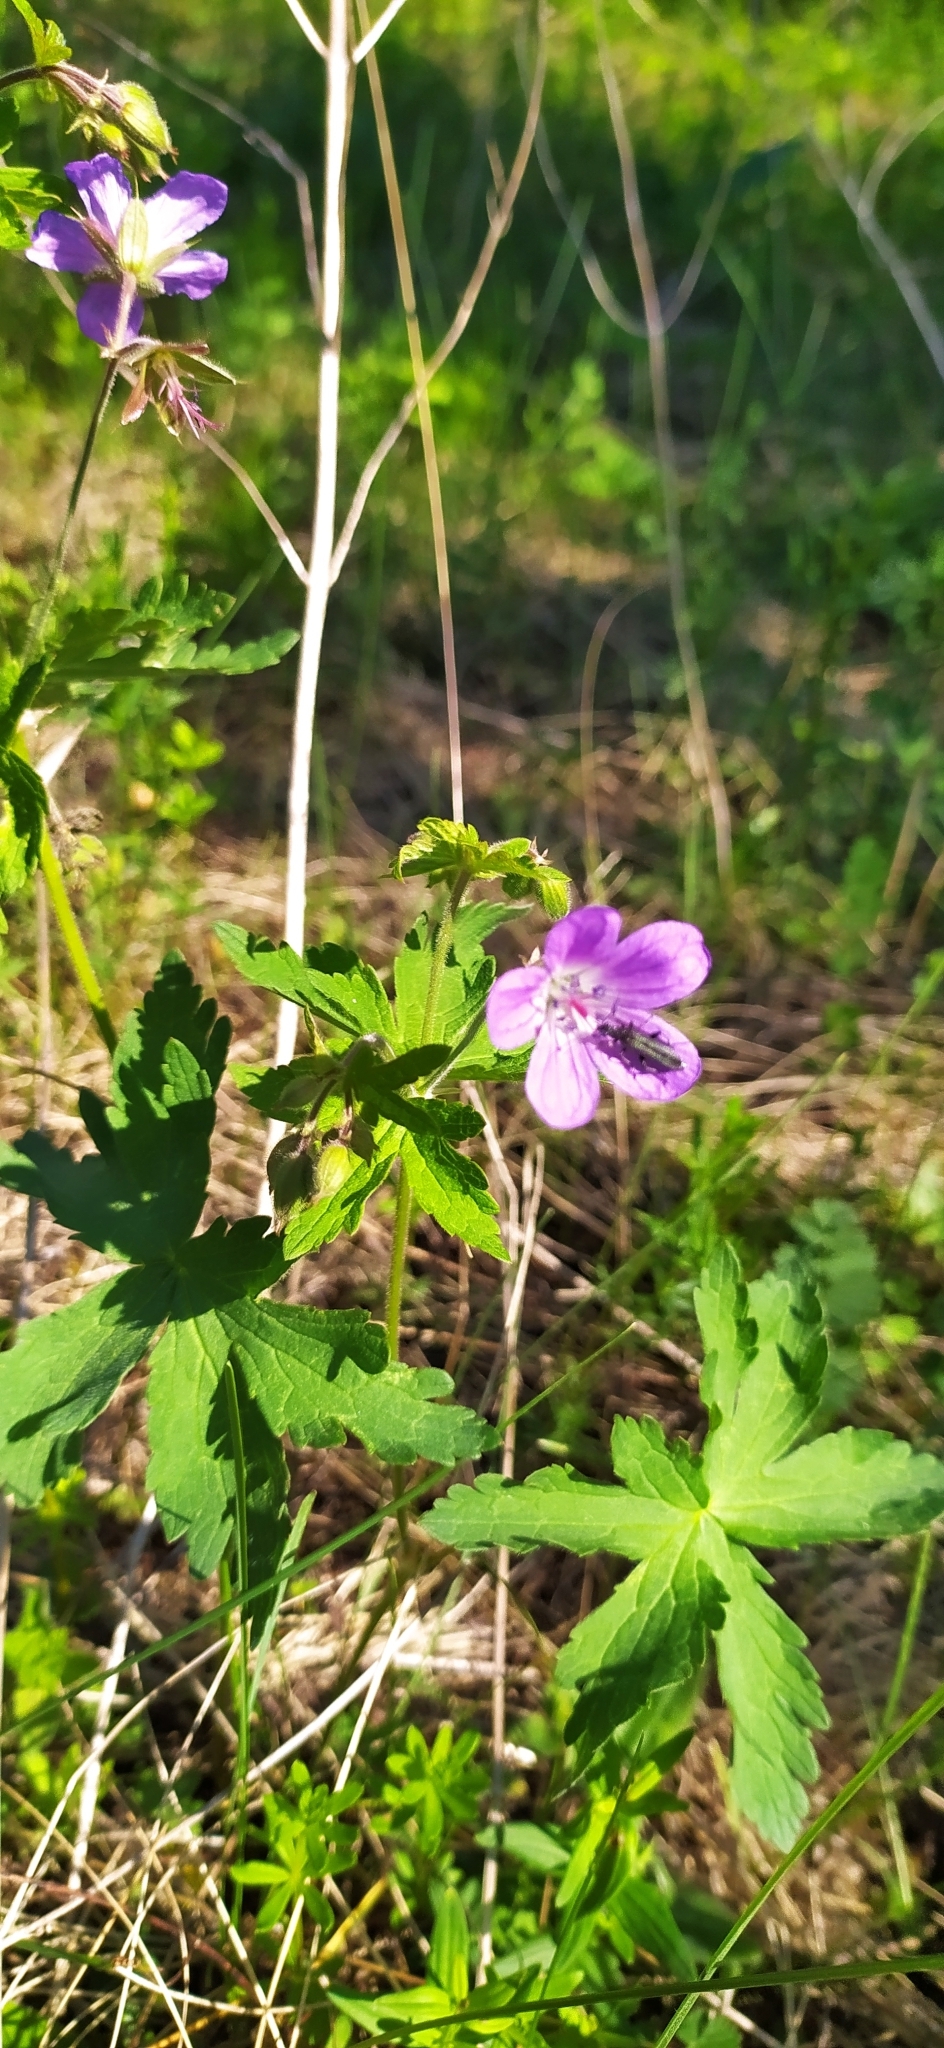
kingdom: Plantae
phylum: Tracheophyta
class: Magnoliopsida
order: Geraniales
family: Geraniaceae
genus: Geranium
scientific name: Geranium sylvaticum
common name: Wood crane's-bill
